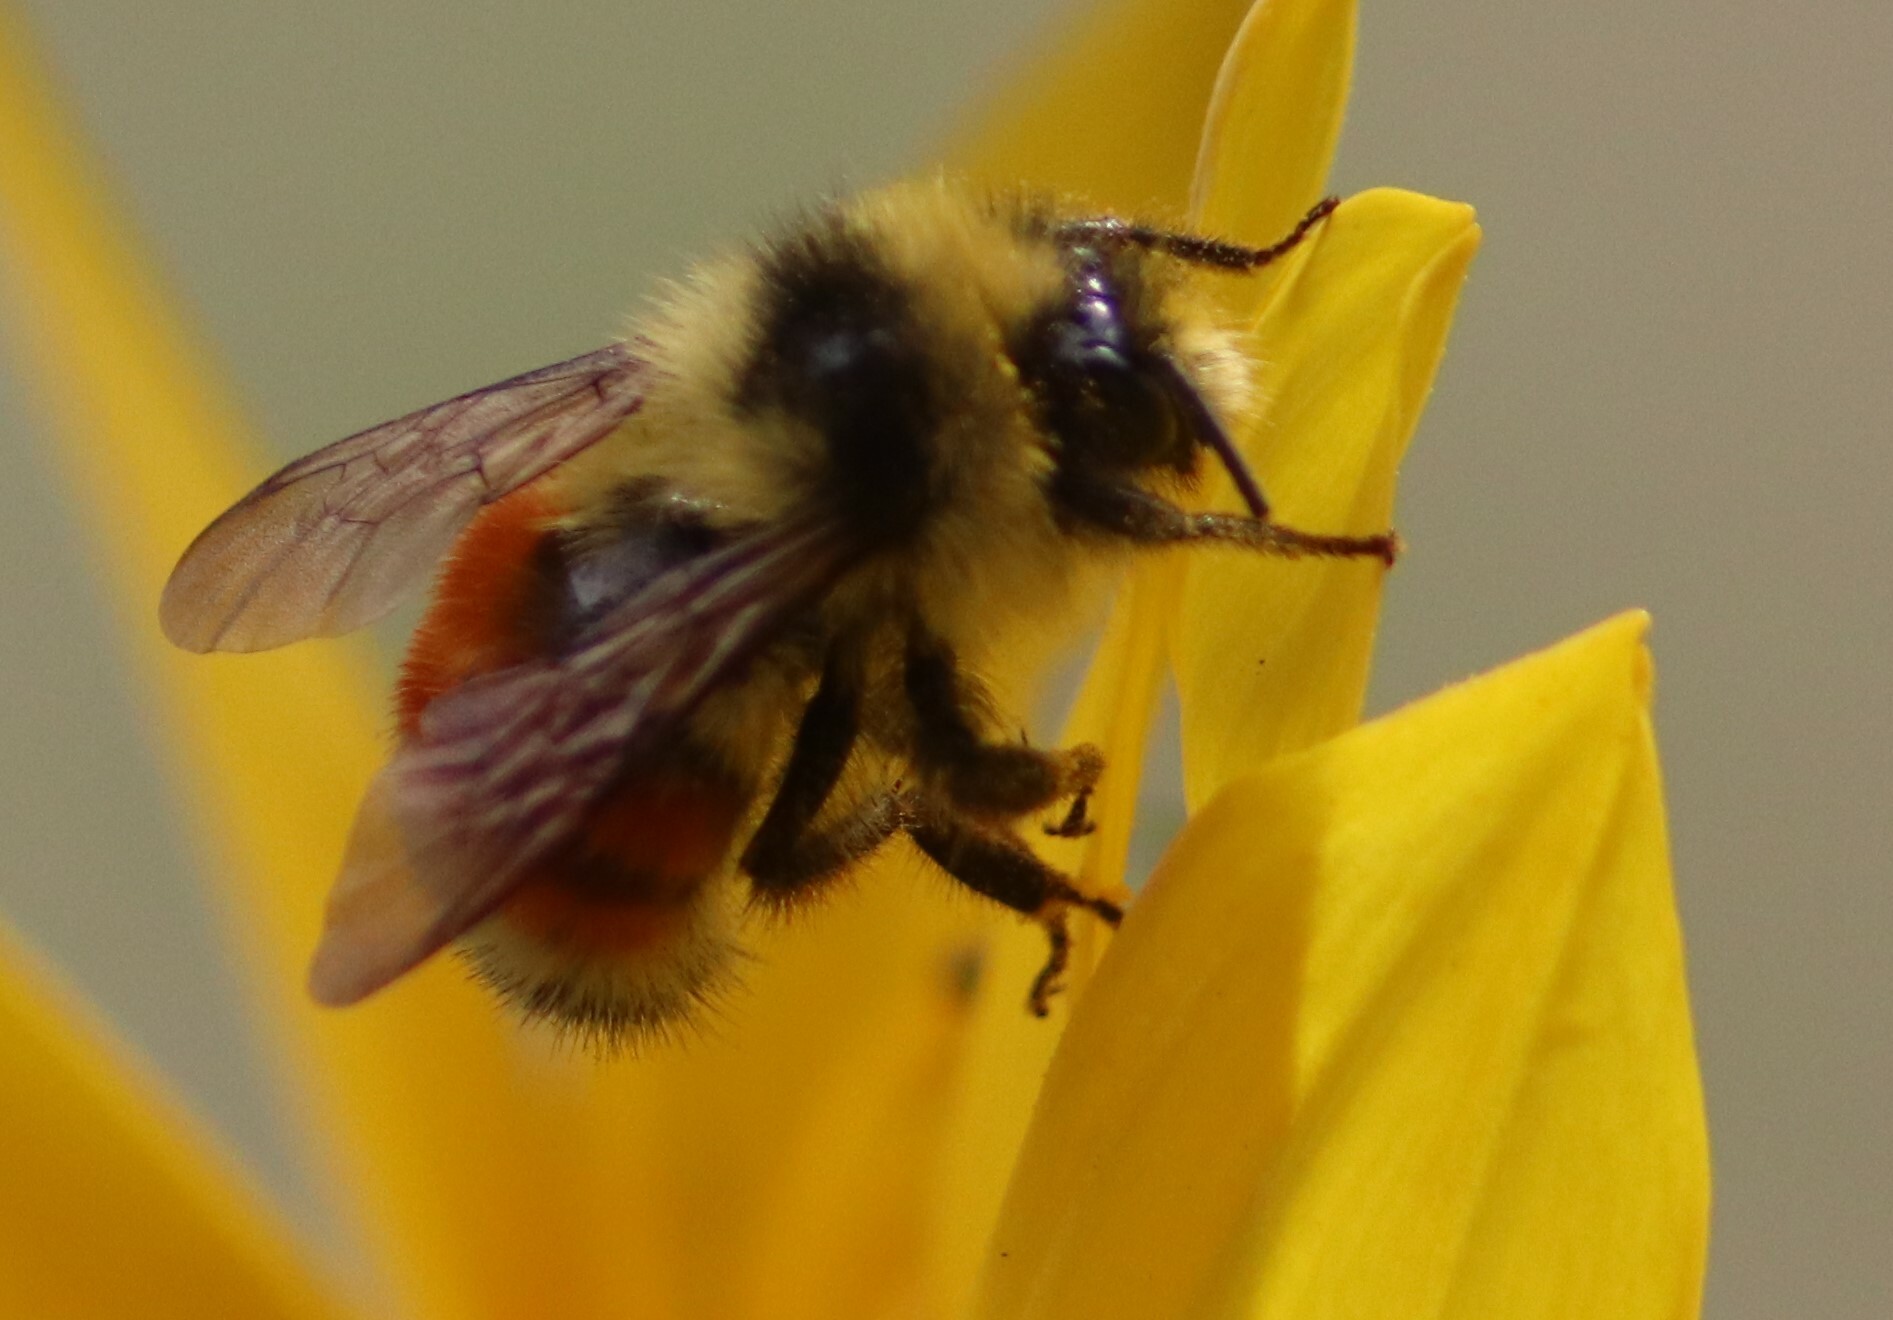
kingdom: Animalia
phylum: Arthropoda
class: Insecta
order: Hymenoptera
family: Apidae
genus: Bombus
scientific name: Bombus ternarius
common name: Tri-colored bumble bee
